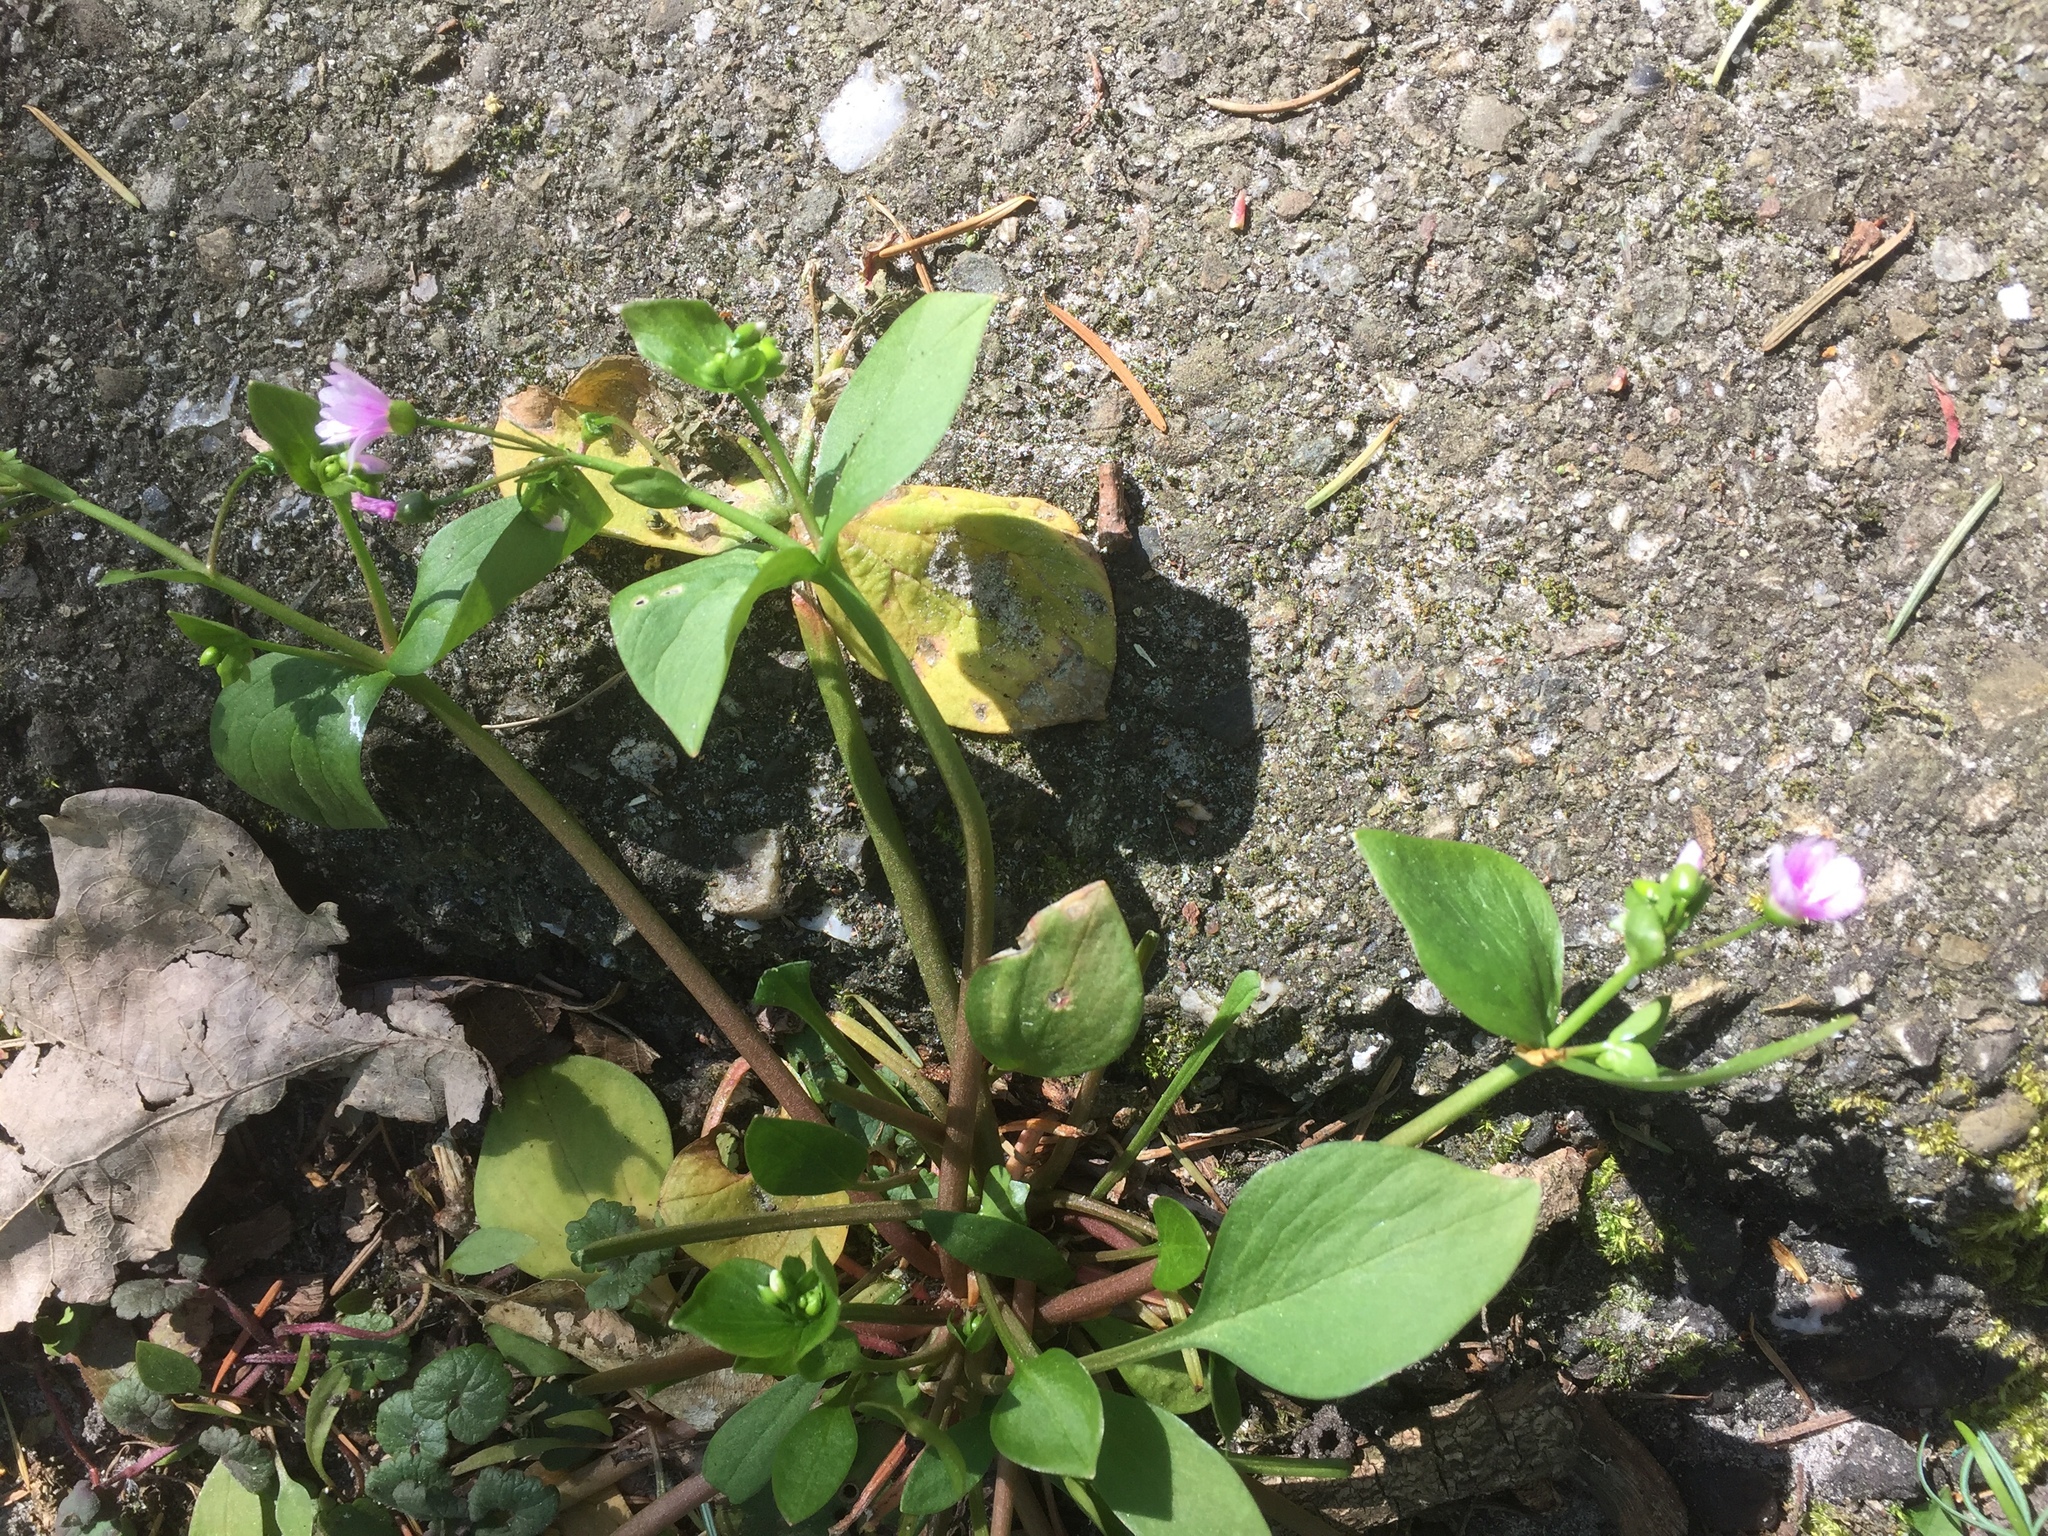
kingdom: Plantae
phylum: Tracheophyta
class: Magnoliopsida
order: Caryophyllales
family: Montiaceae
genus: Claytonia
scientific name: Claytonia sibirica
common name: Pink purslane
